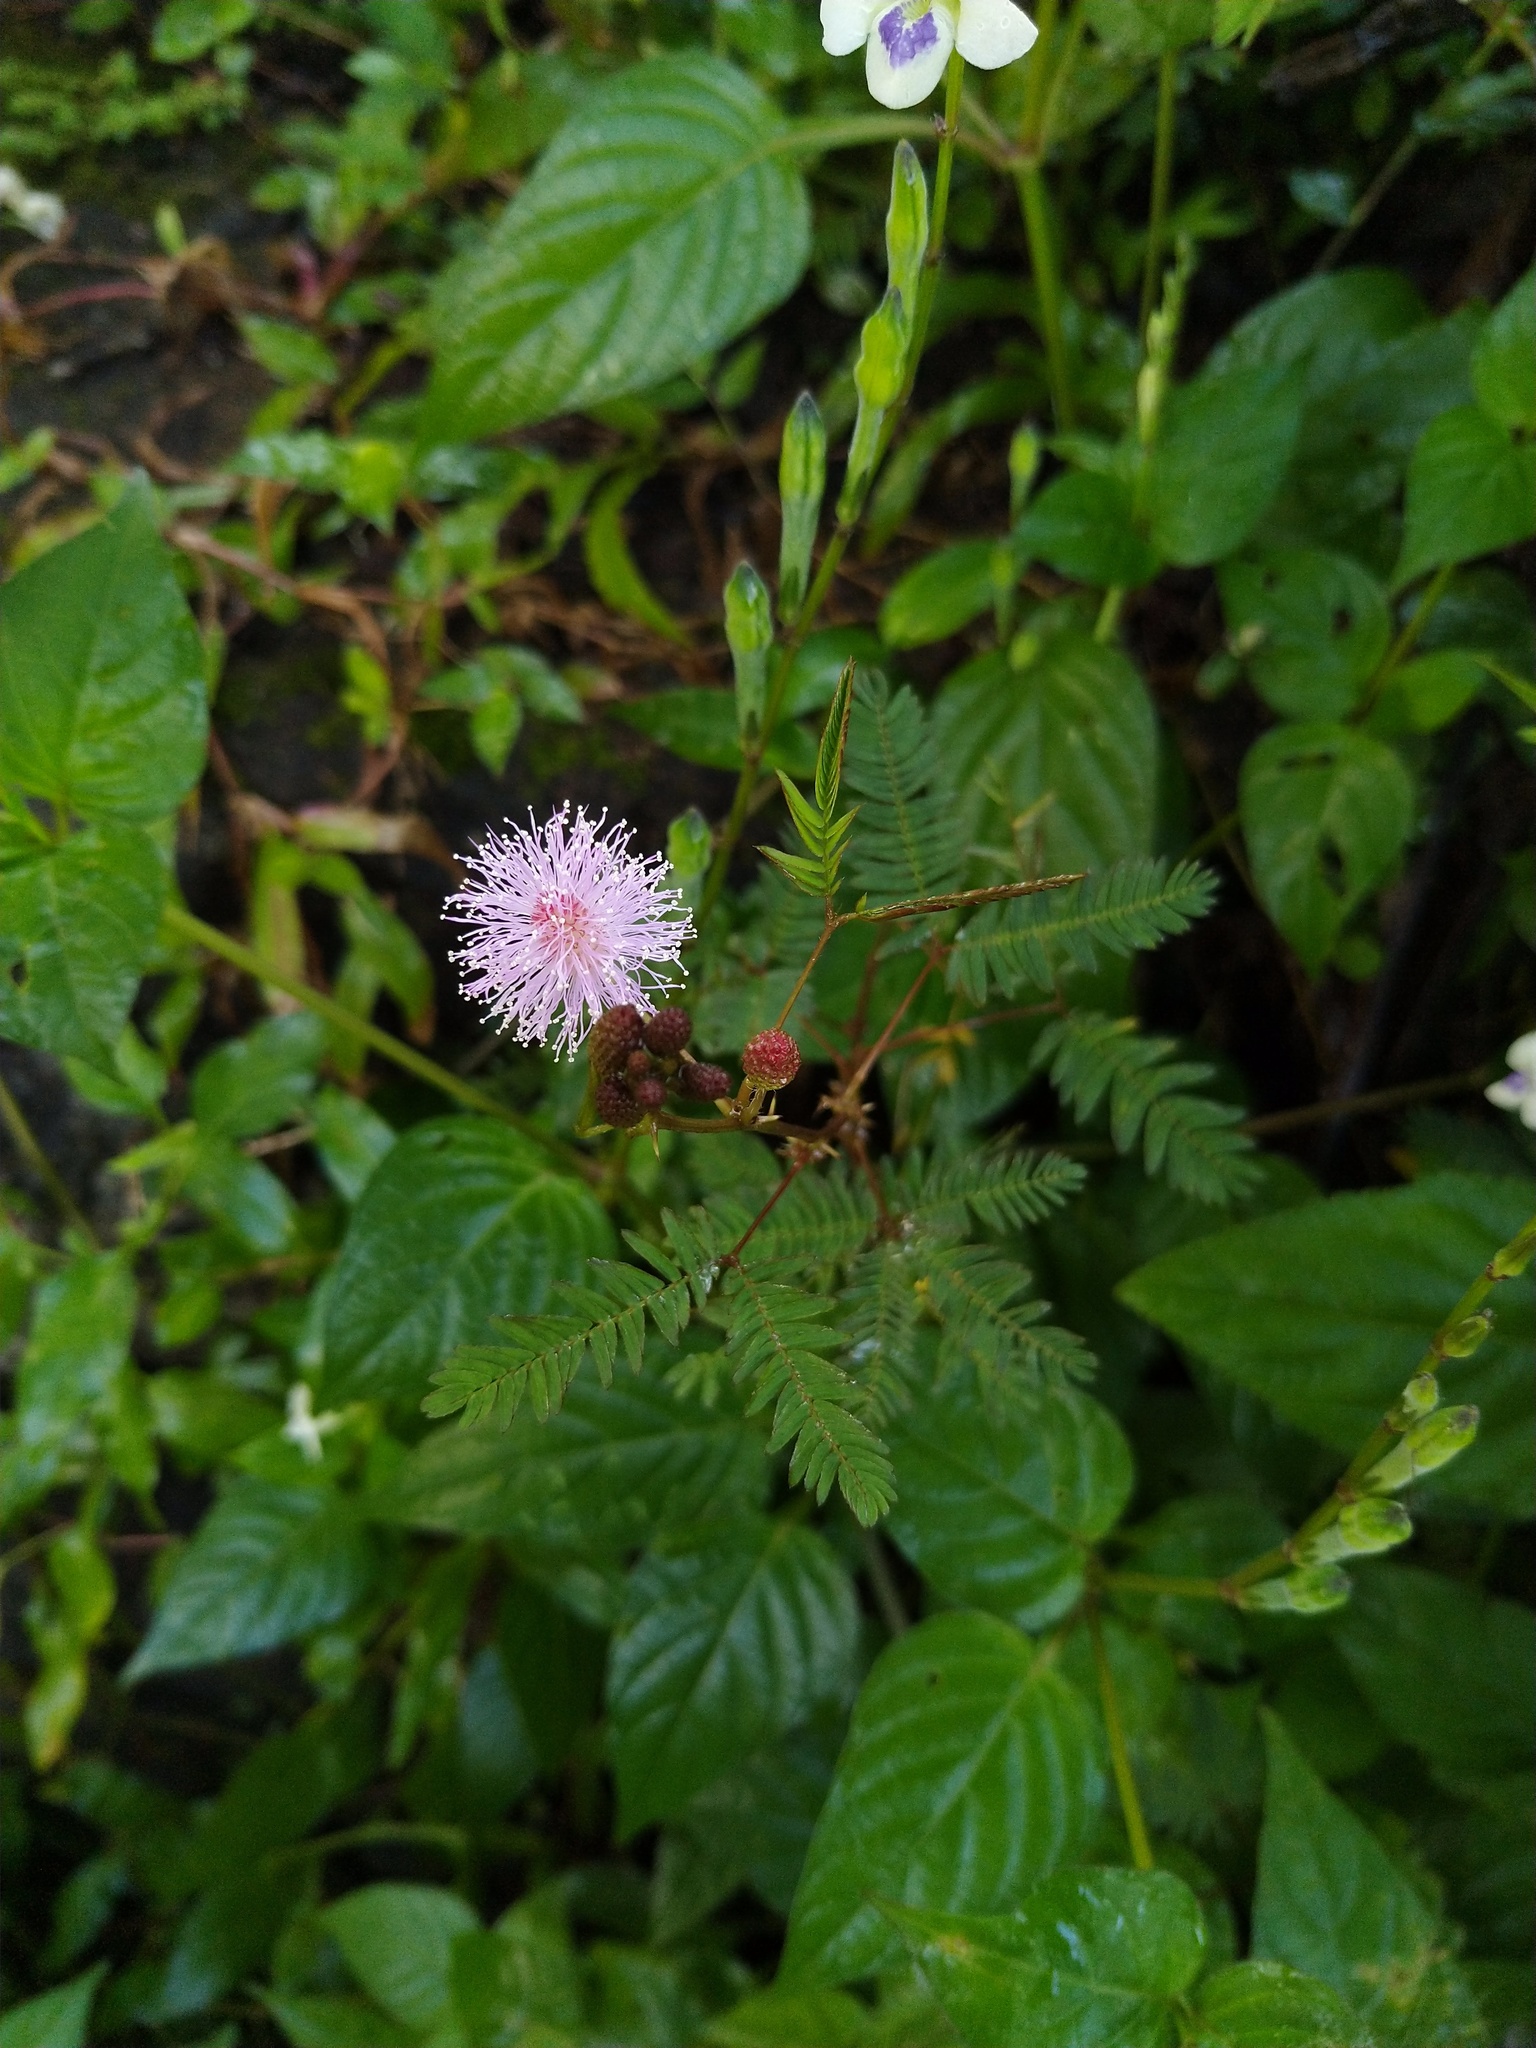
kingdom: Plantae
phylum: Tracheophyta
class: Magnoliopsida
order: Fabales
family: Fabaceae
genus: Mimosa
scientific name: Mimosa pudica
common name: Sensitive plant
